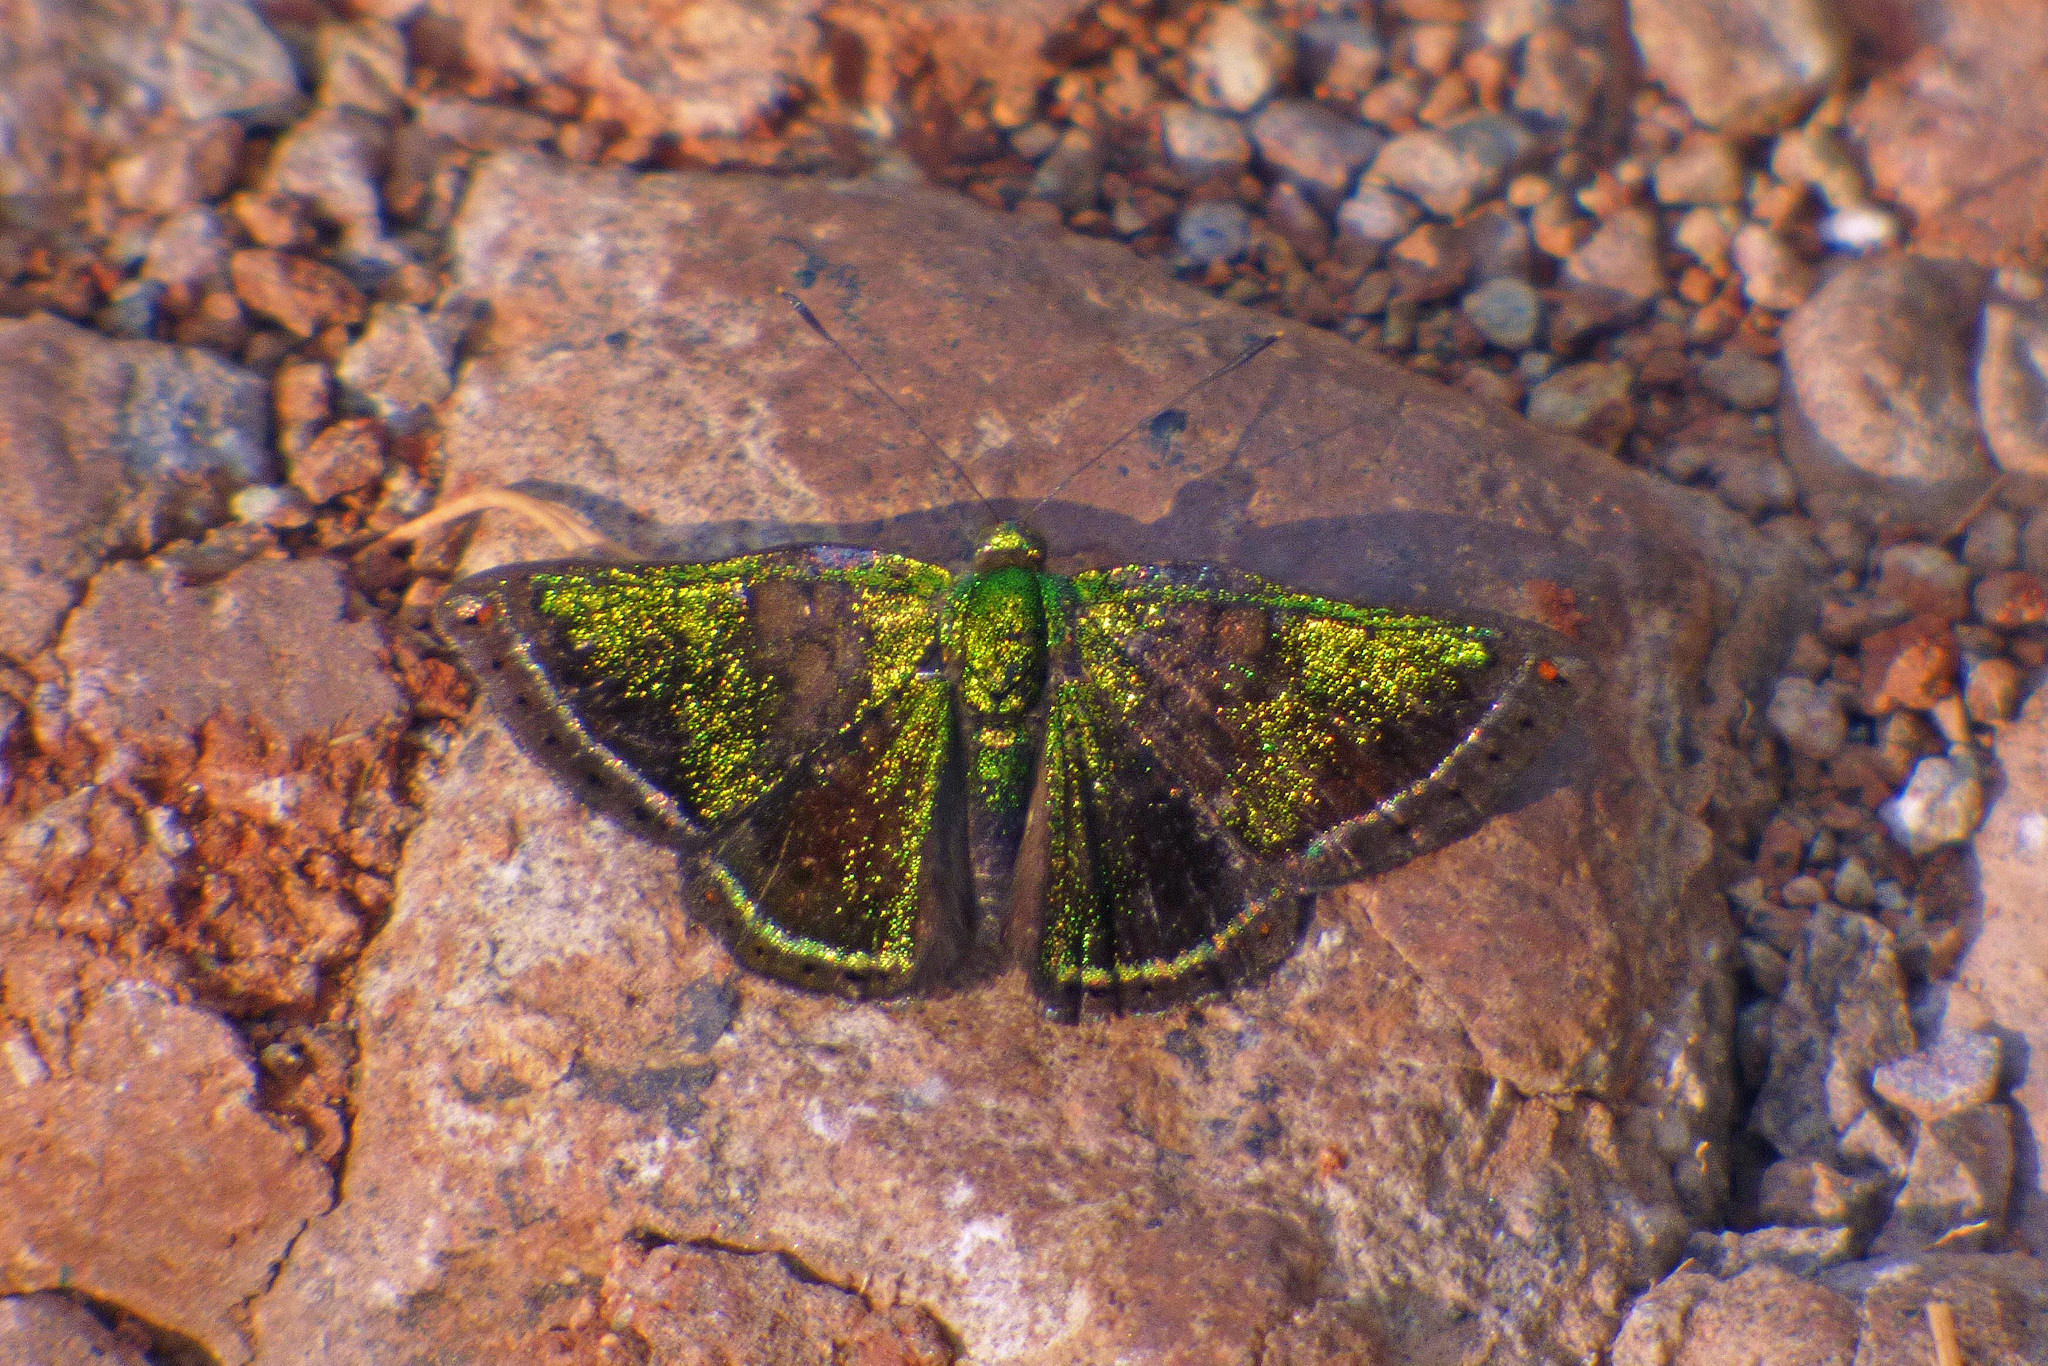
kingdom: Animalia
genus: Caria
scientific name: Caria castalia
